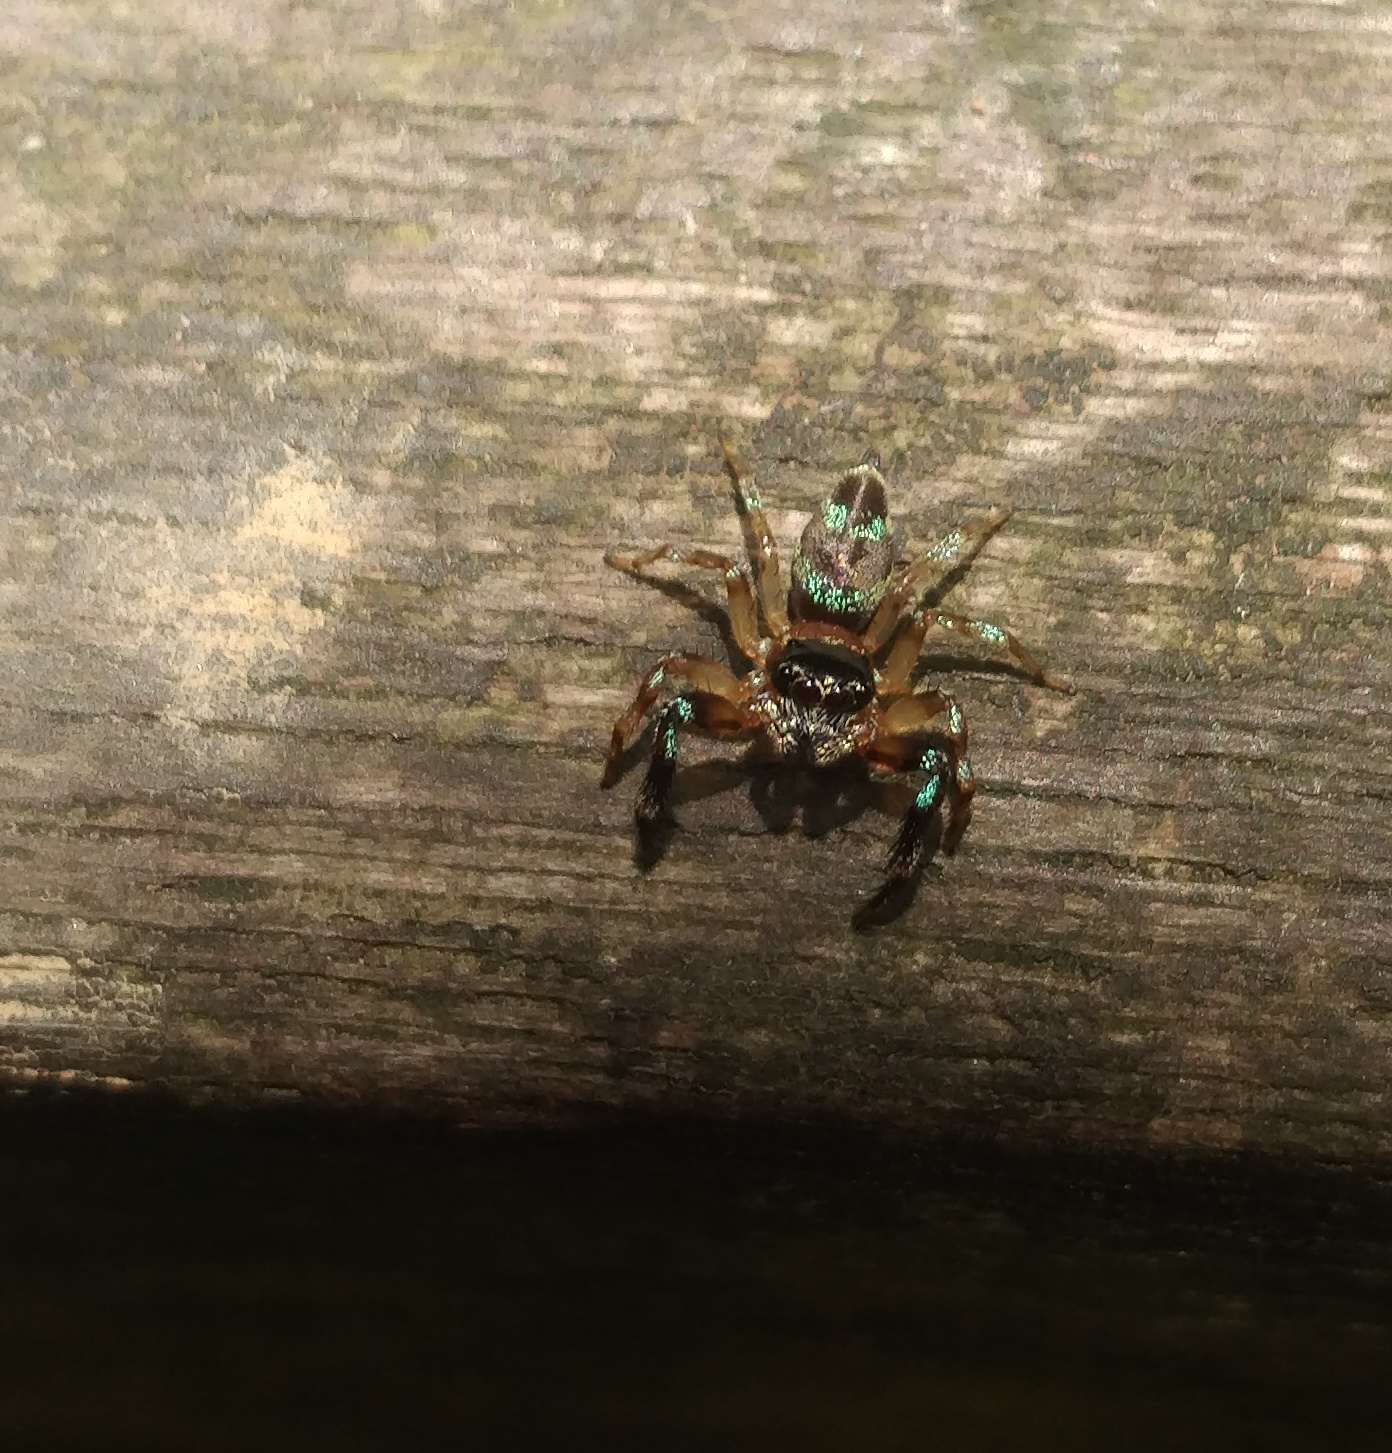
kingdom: Animalia
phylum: Arthropoda
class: Arachnida
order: Araneae
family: Salticidae
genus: Thiania
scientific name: Thiania bhamoensis
